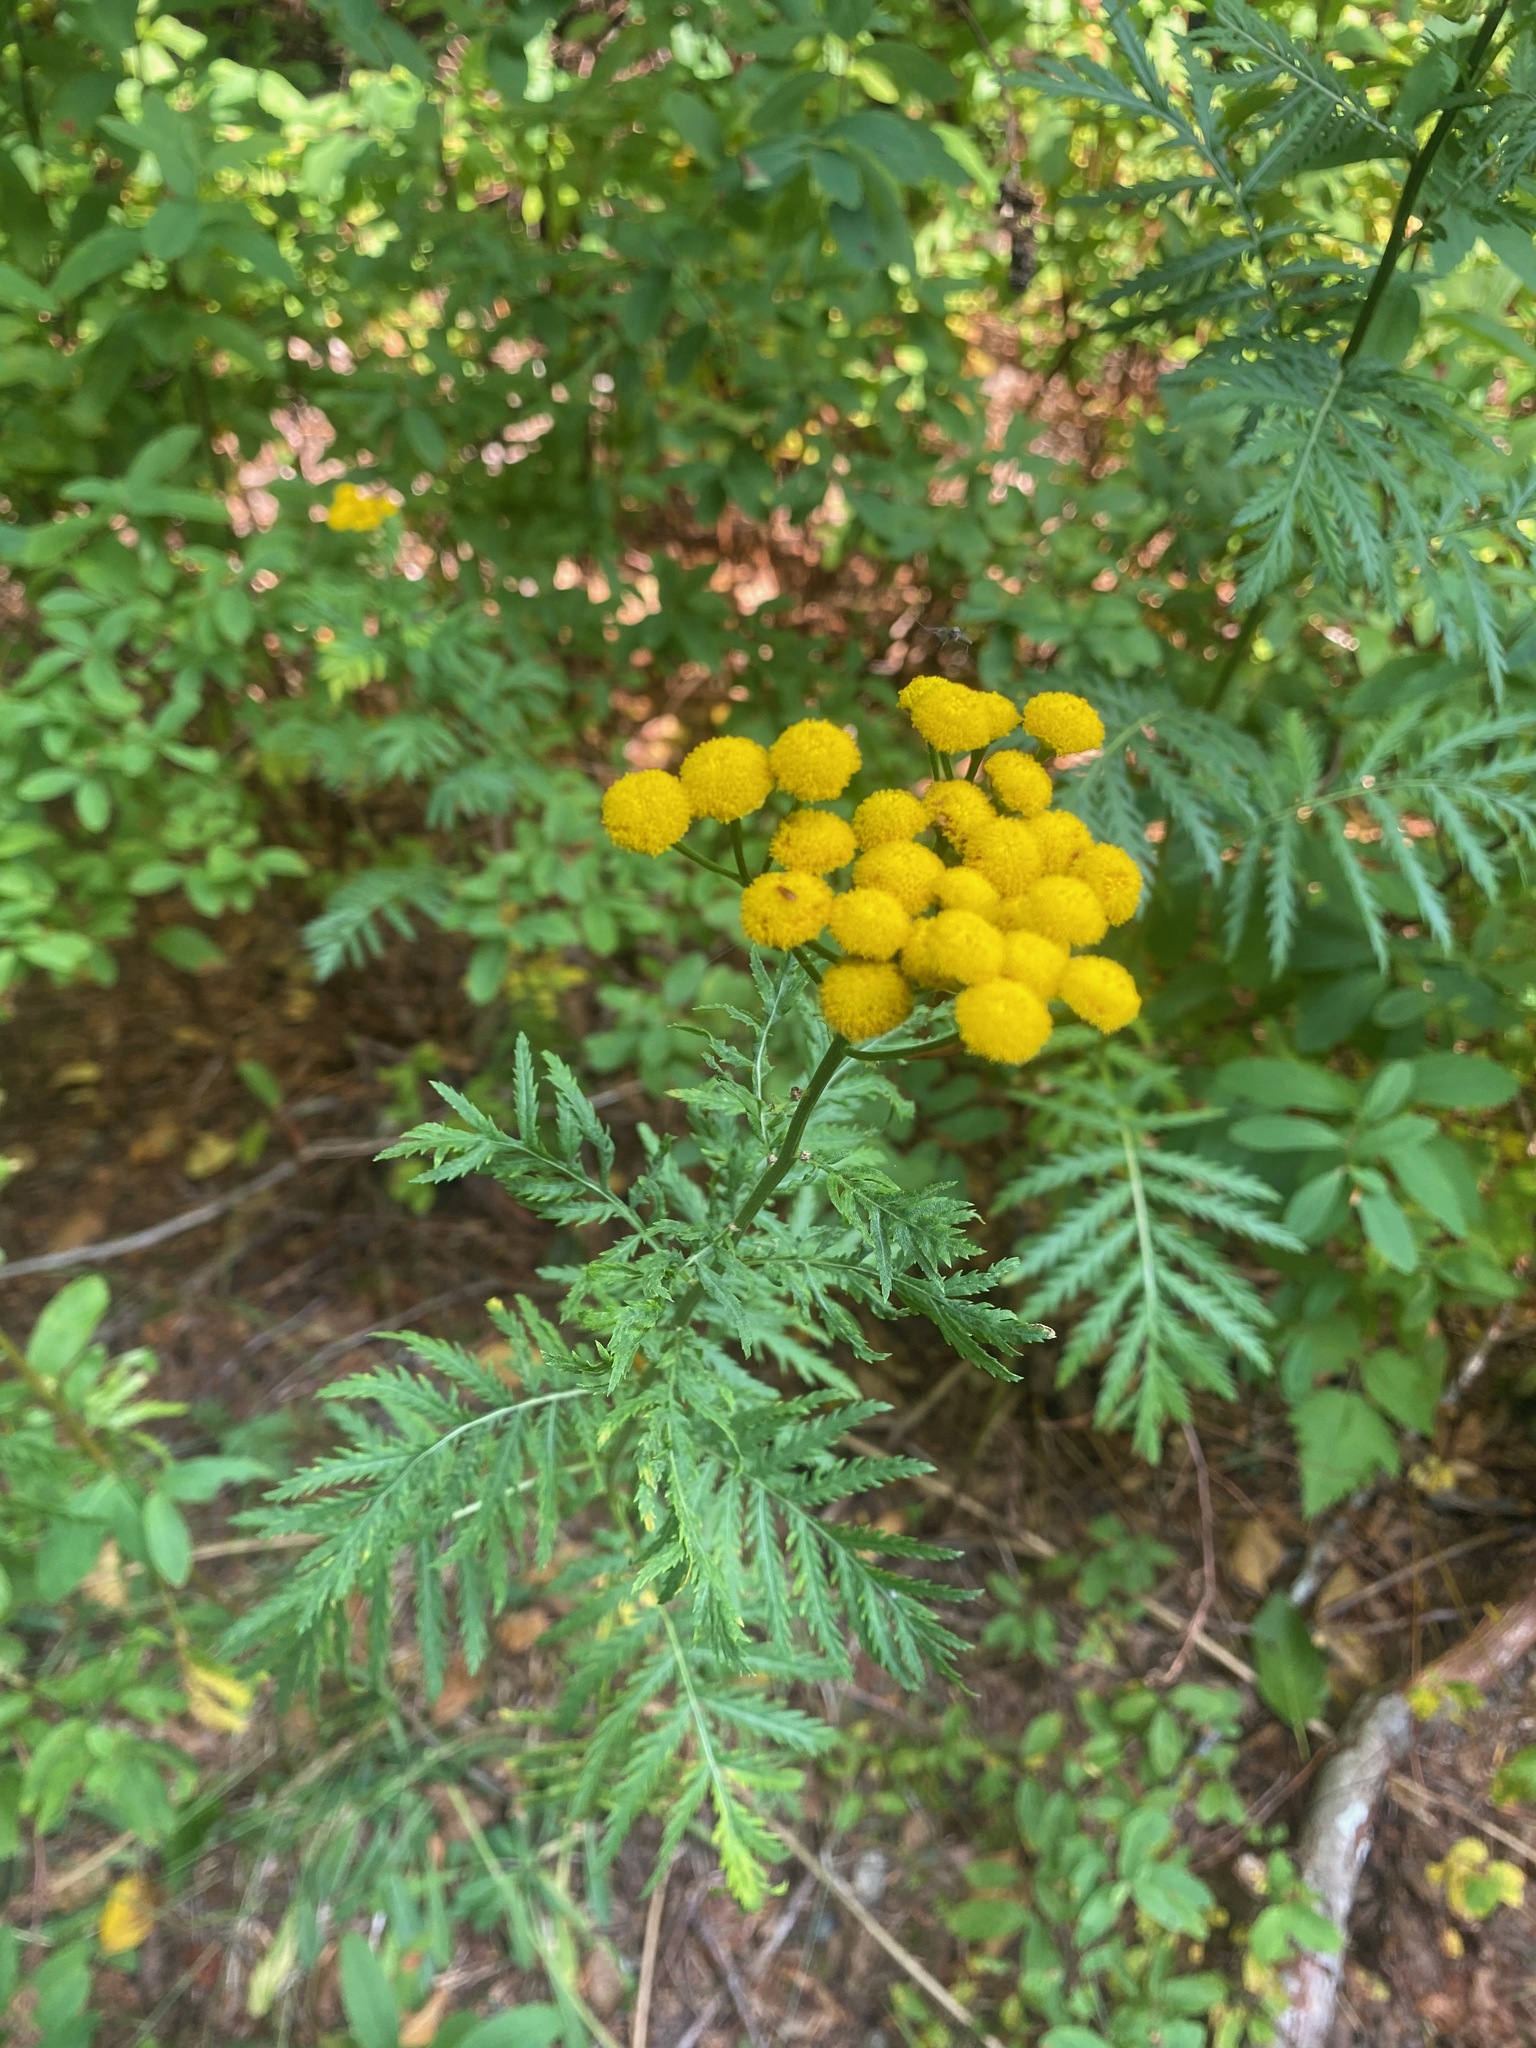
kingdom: Plantae
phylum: Tracheophyta
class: Magnoliopsida
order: Asterales
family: Asteraceae
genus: Tanacetum
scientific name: Tanacetum vulgare
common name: Common tansy
